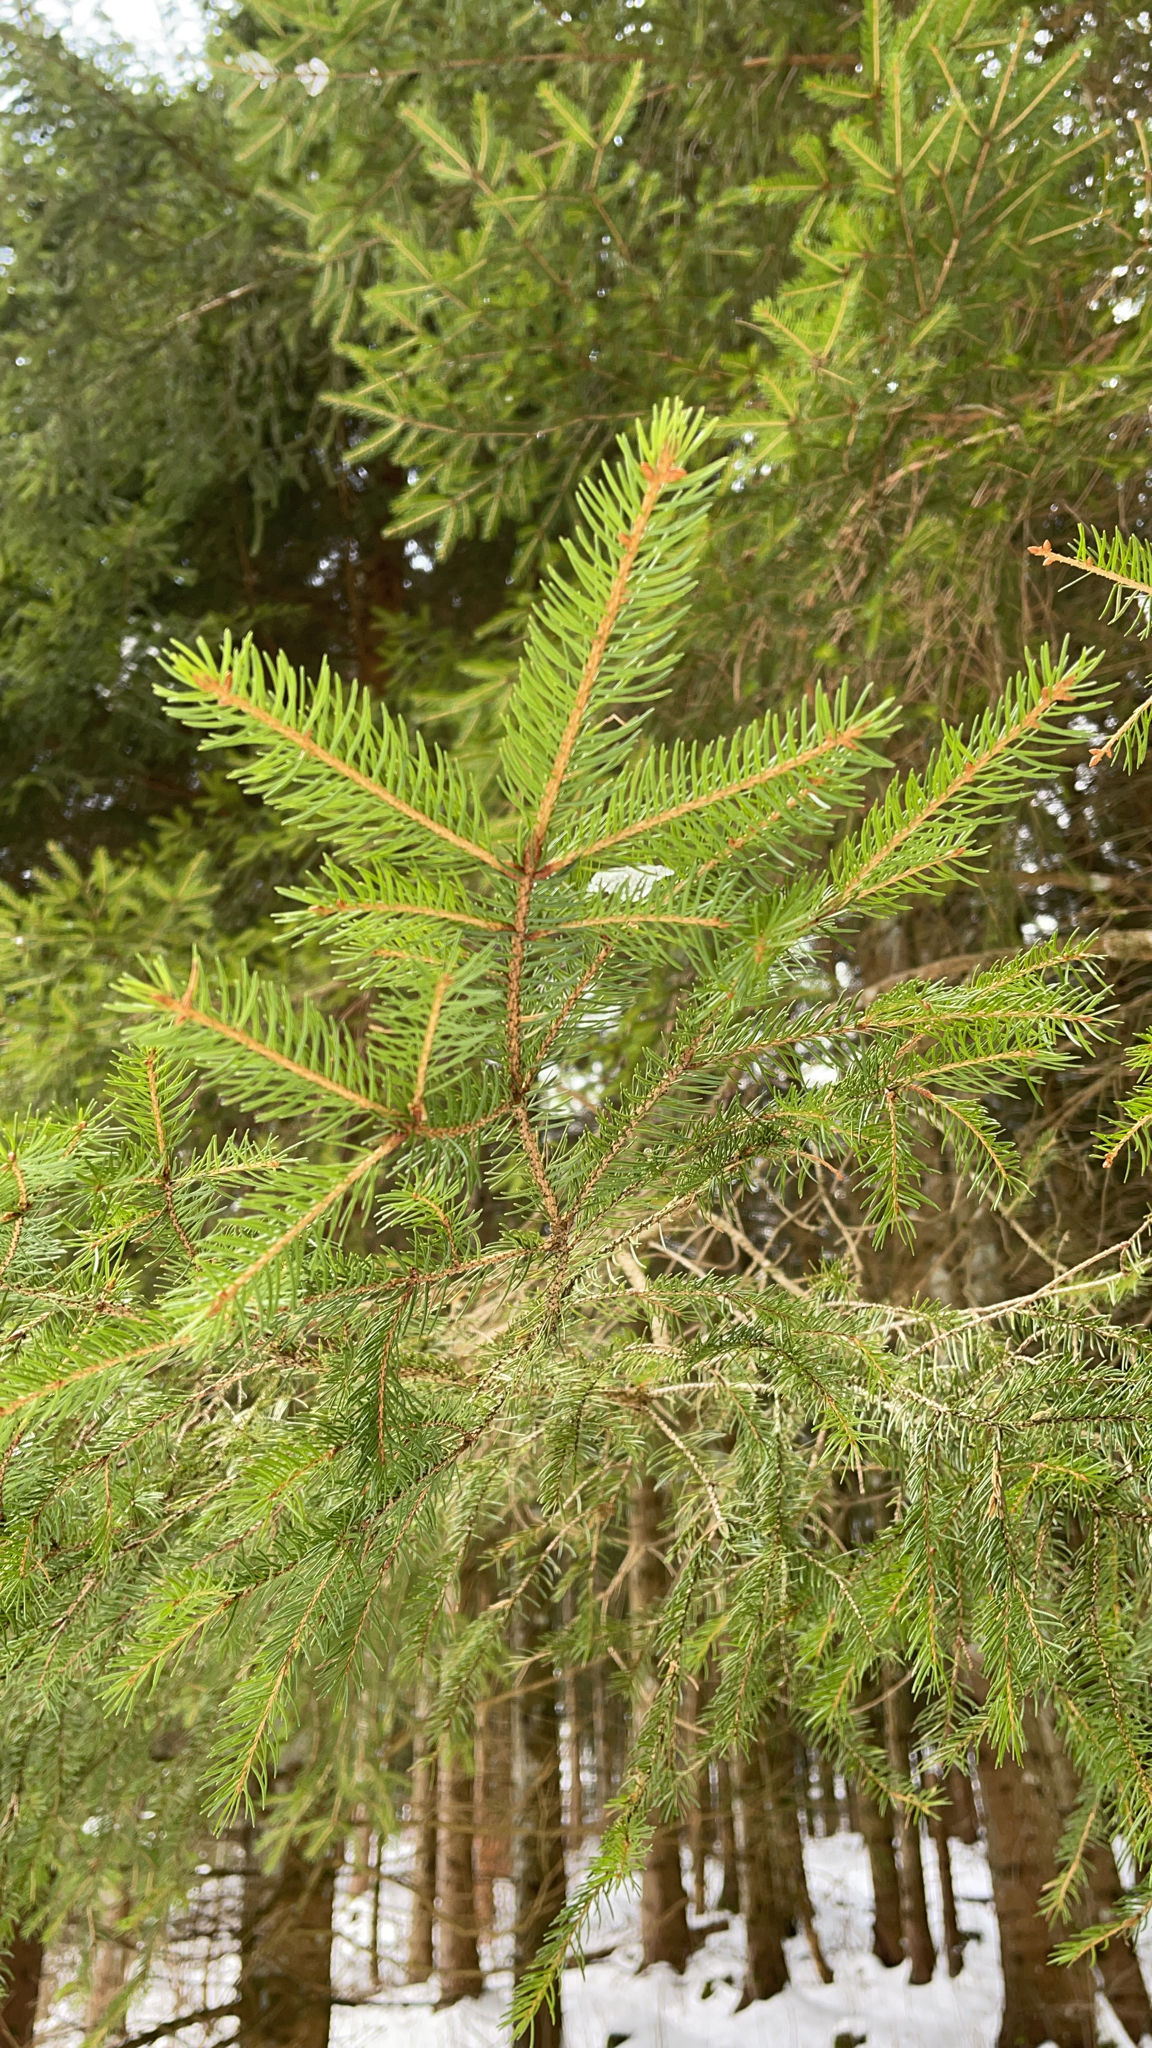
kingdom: Plantae
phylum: Tracheophyta
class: Pinopsida
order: Pinales
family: Pinaceae
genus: Picea
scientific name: Picea abies
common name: Norway spruce
